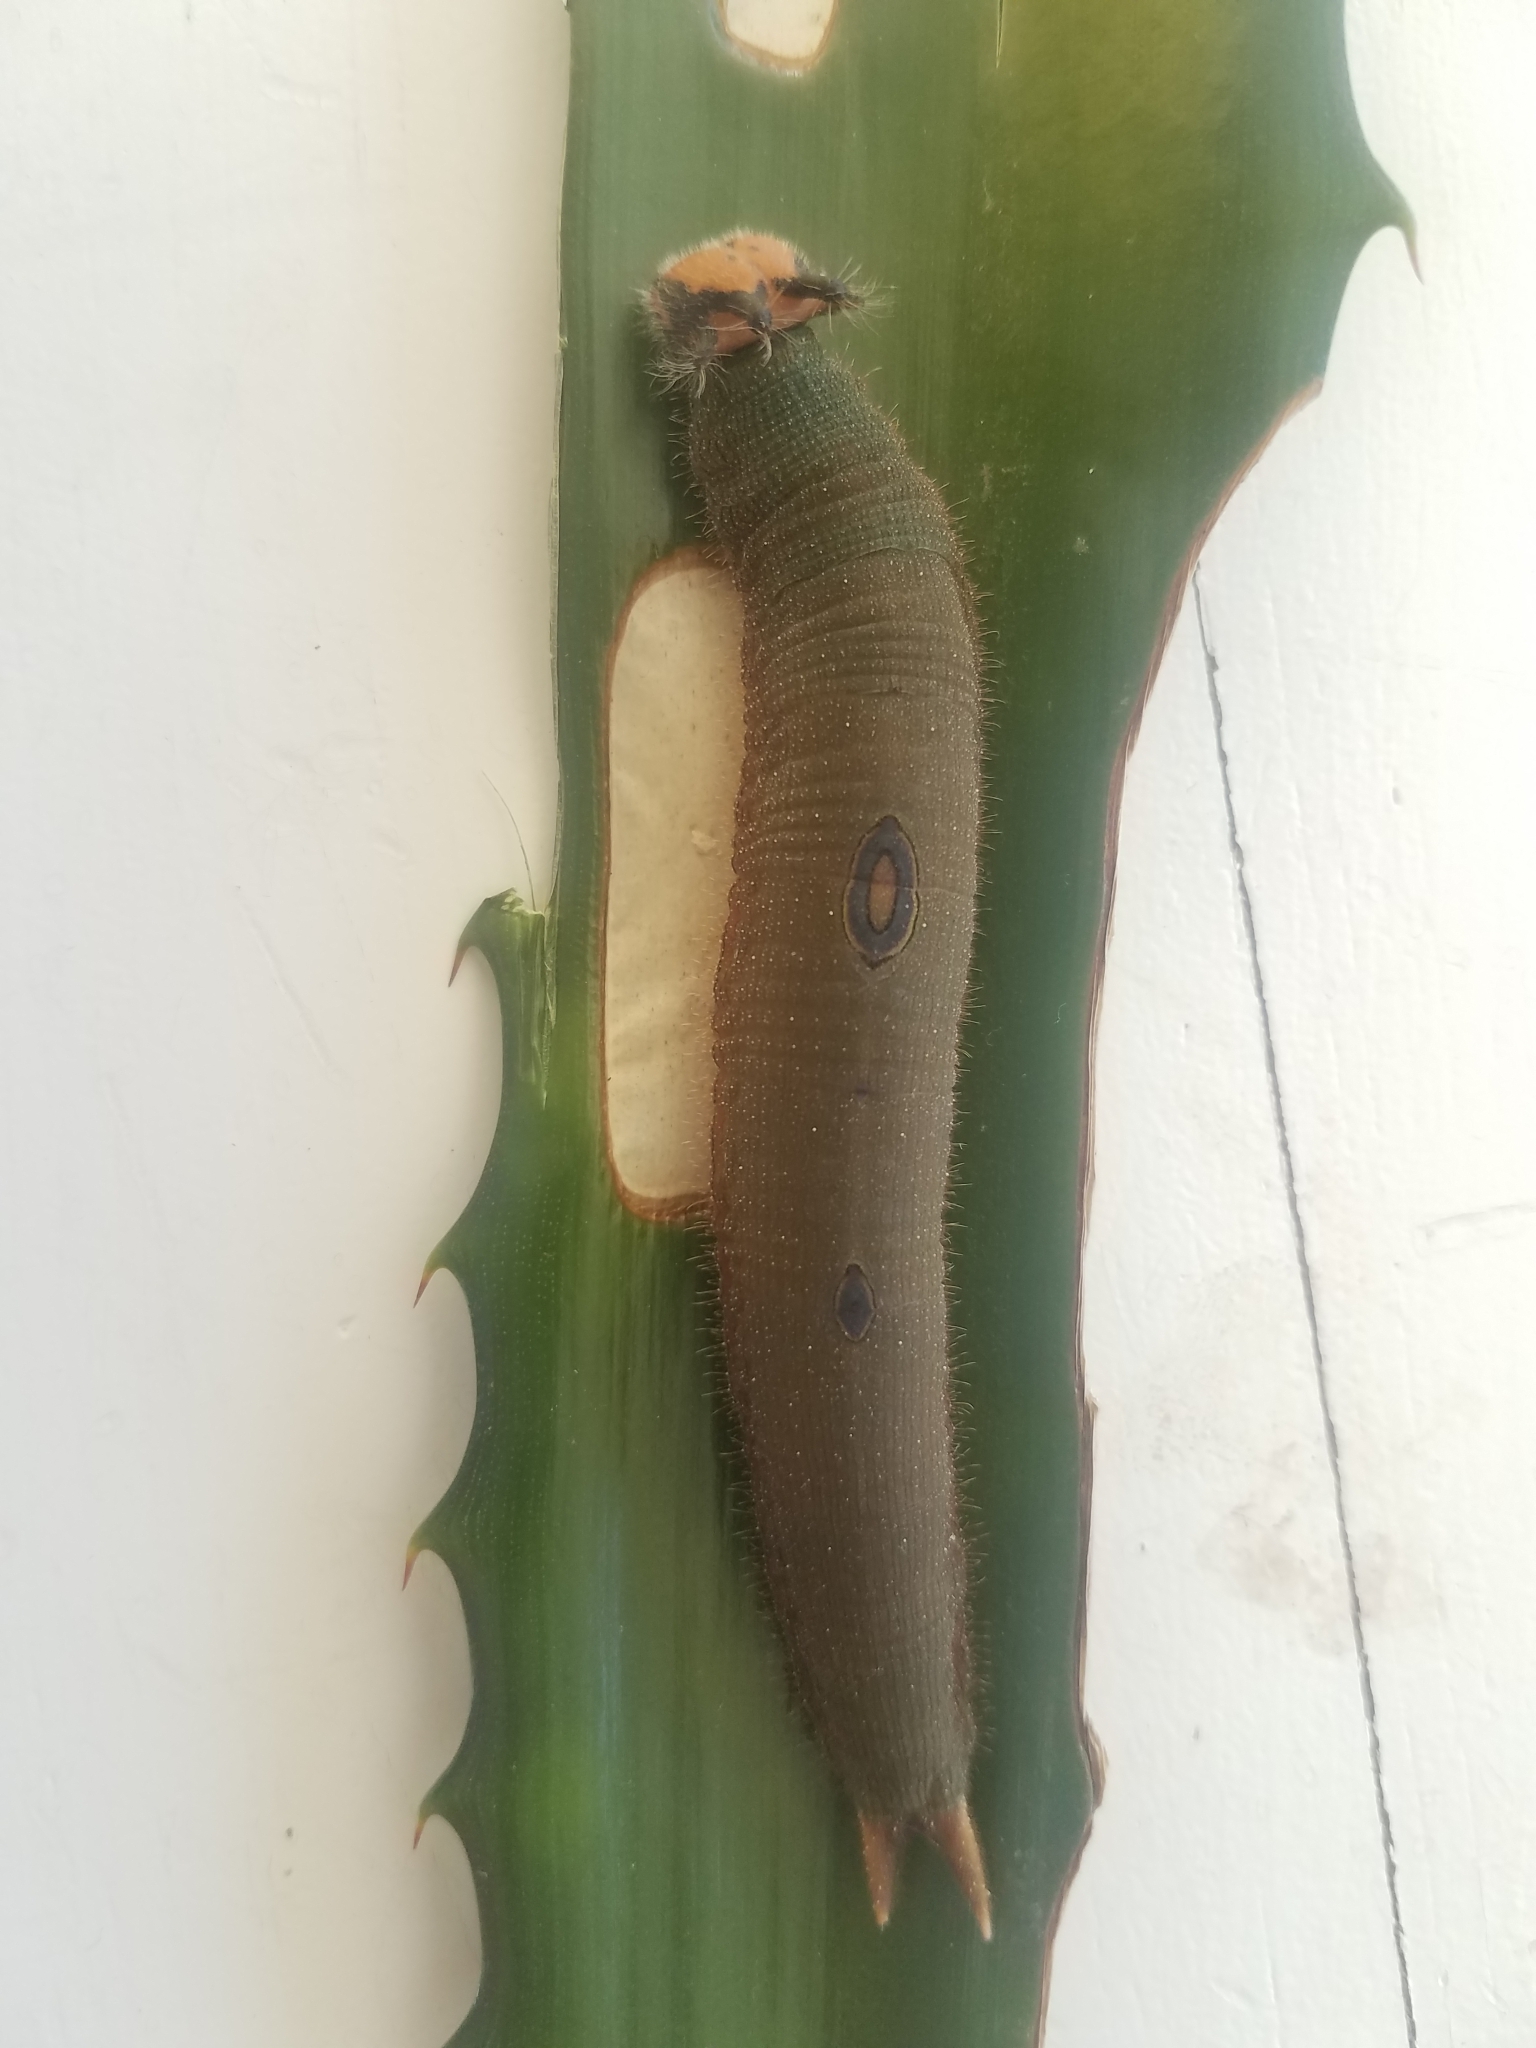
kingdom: Animalia
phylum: Arthropoda
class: Insecta
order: Lepidoptera
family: Nymphalidae
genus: Dynastor
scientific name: Dynastor darius
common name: Daring owl-butterfly
